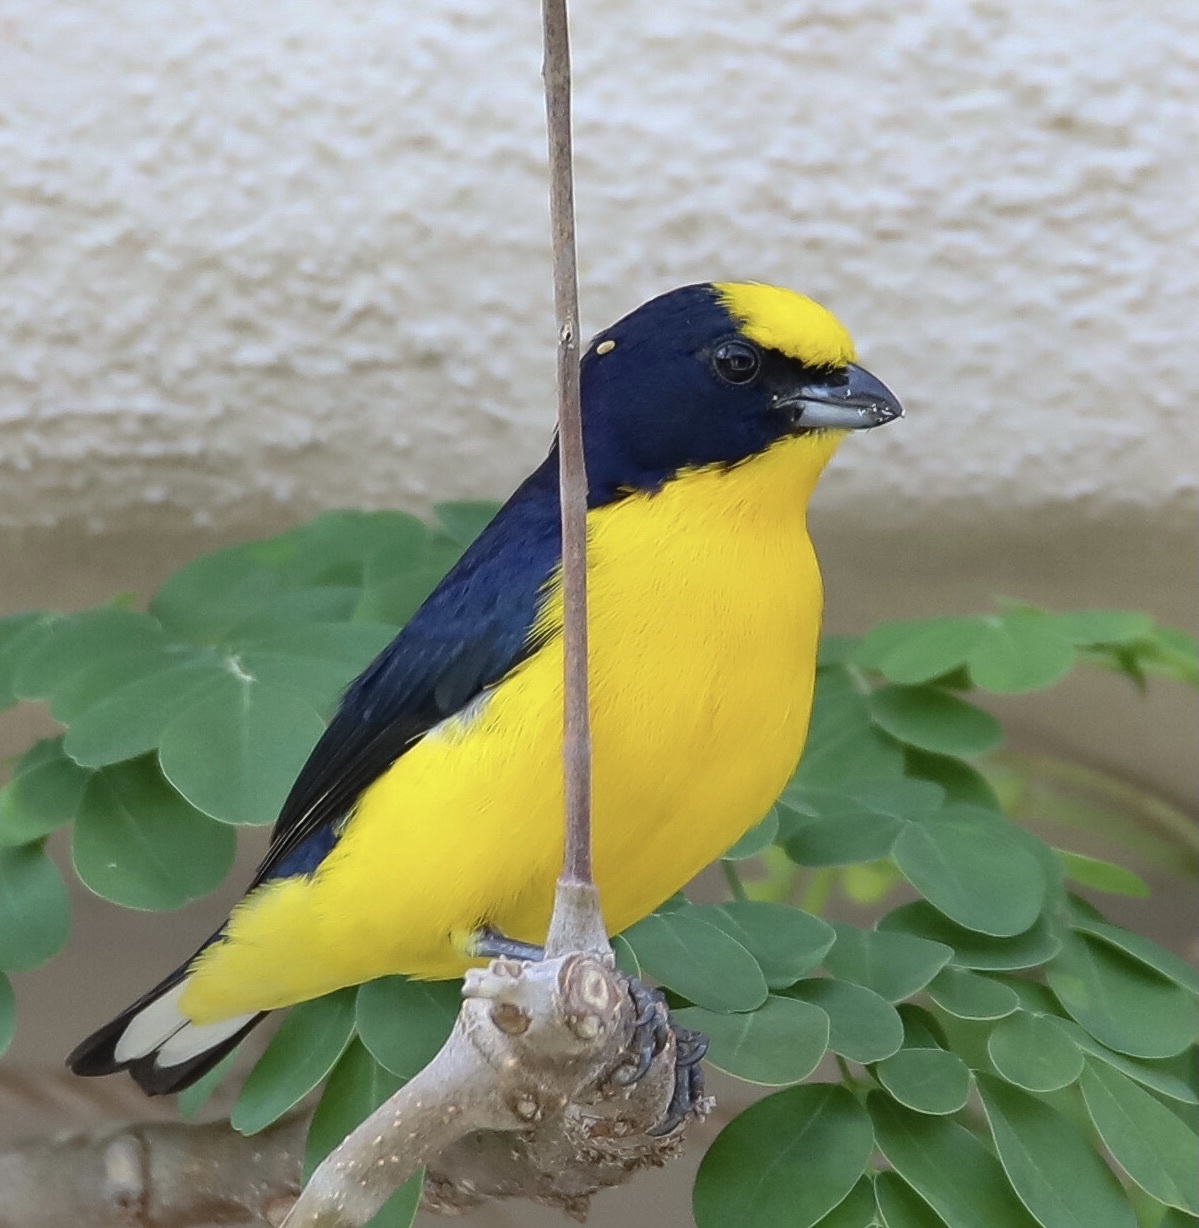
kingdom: Animalia
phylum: Chordata
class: Aves
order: Passeriformes
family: Fringillidae
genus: Euphonia
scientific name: Euphonia laniirostris
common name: Thick-billed euphonia
